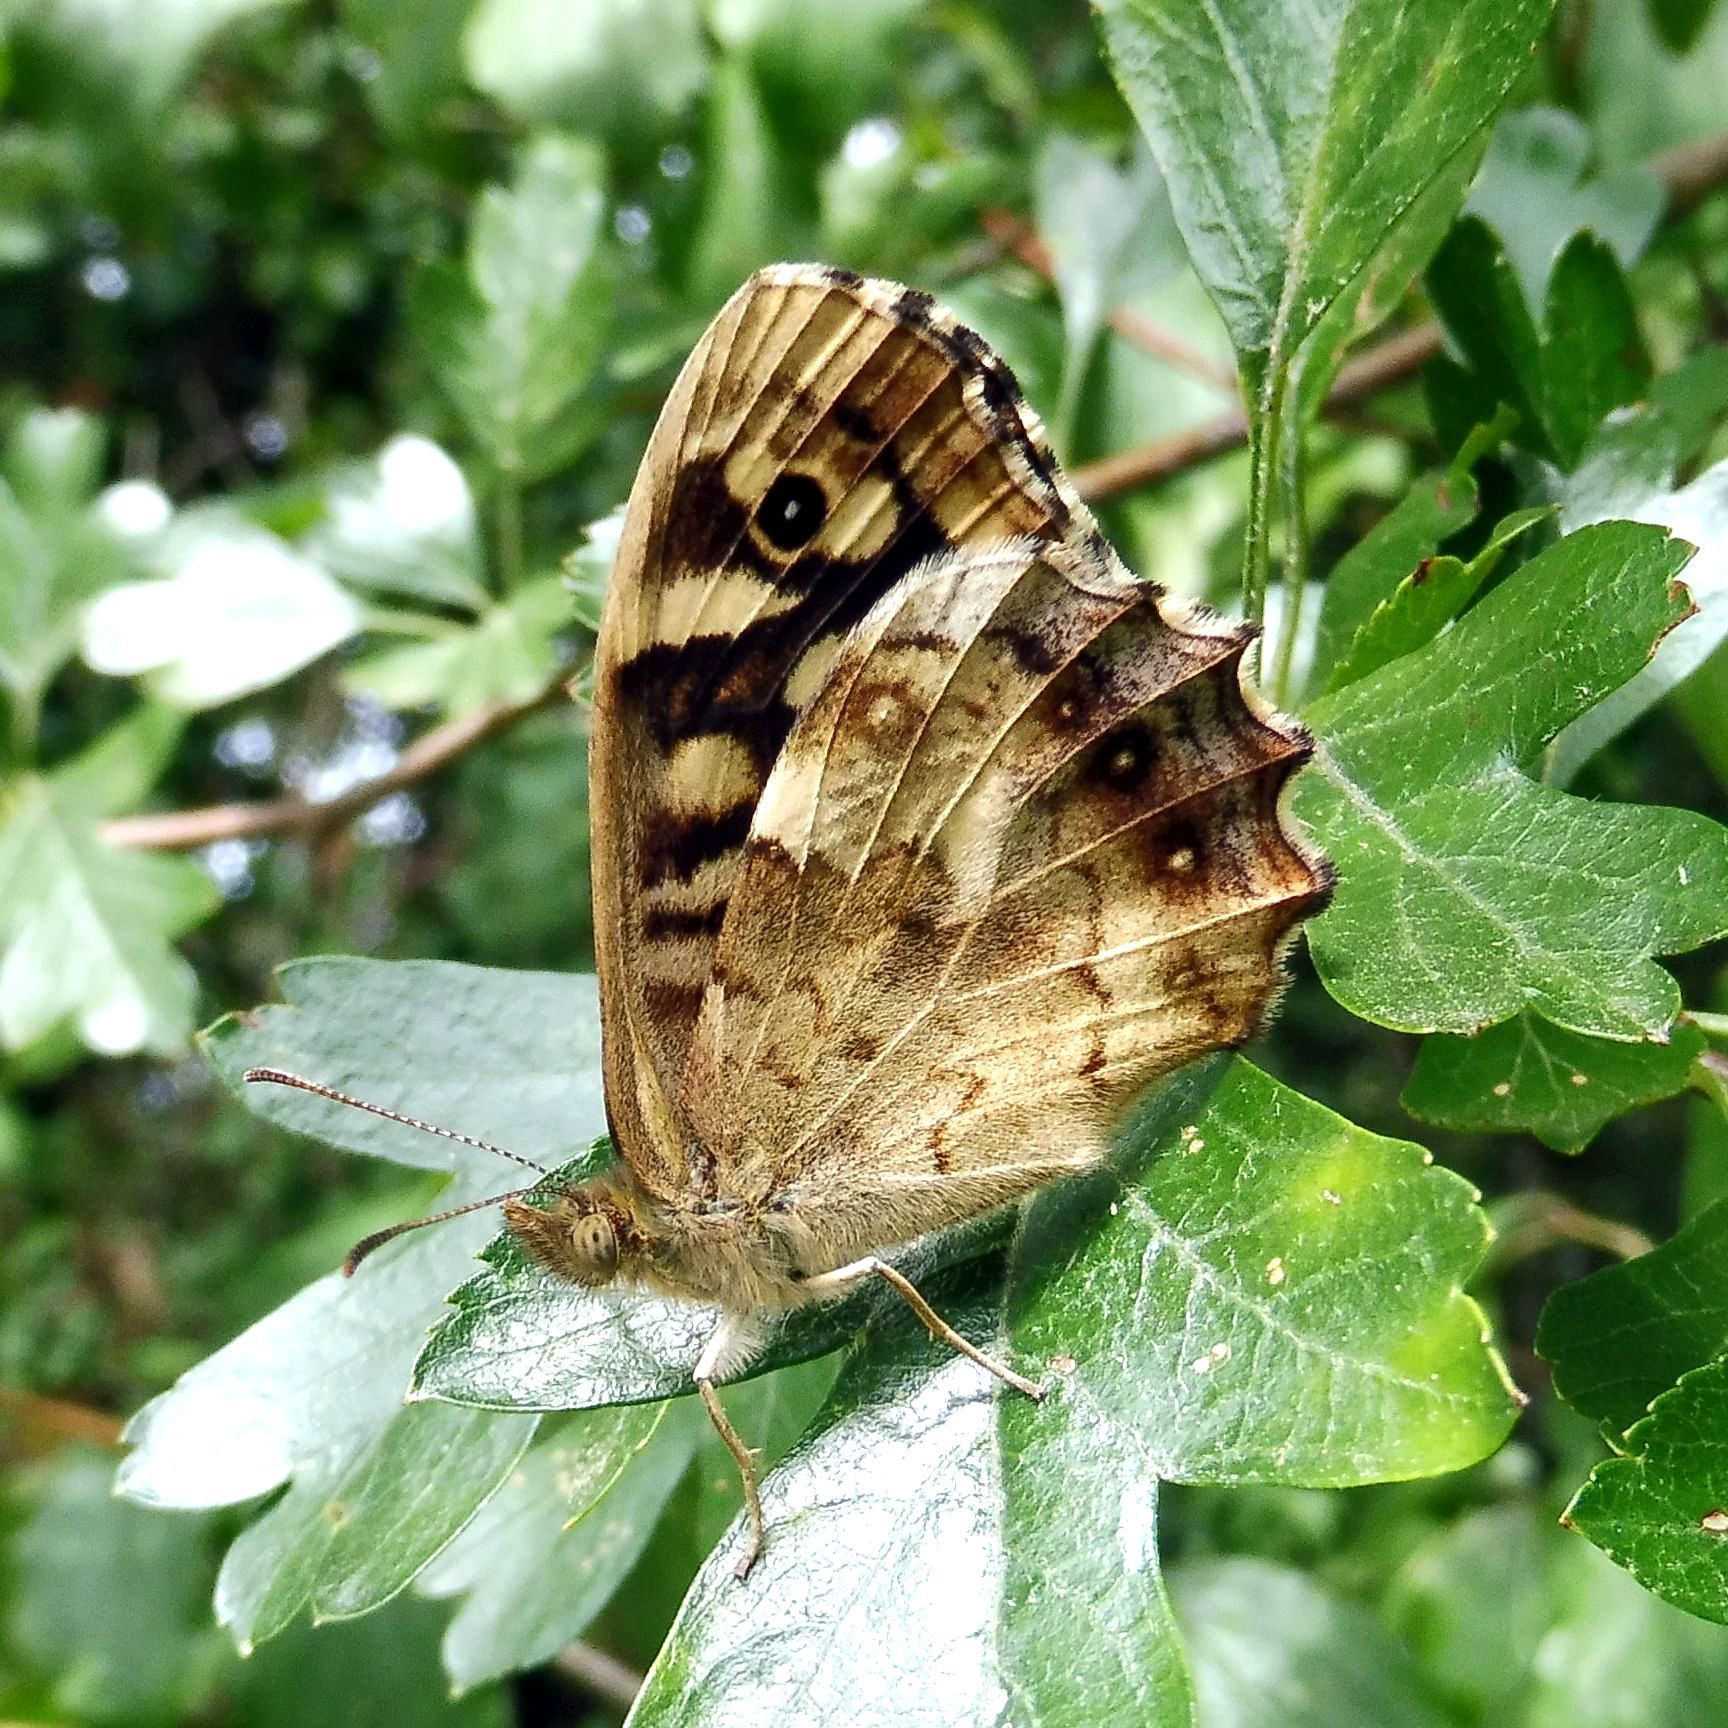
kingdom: Animalia
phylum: Arthropoda
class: Insecta
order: Lepidoptera
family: Nymphalidae
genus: Pararge
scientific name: Pararge aegeria
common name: Speckled wood
